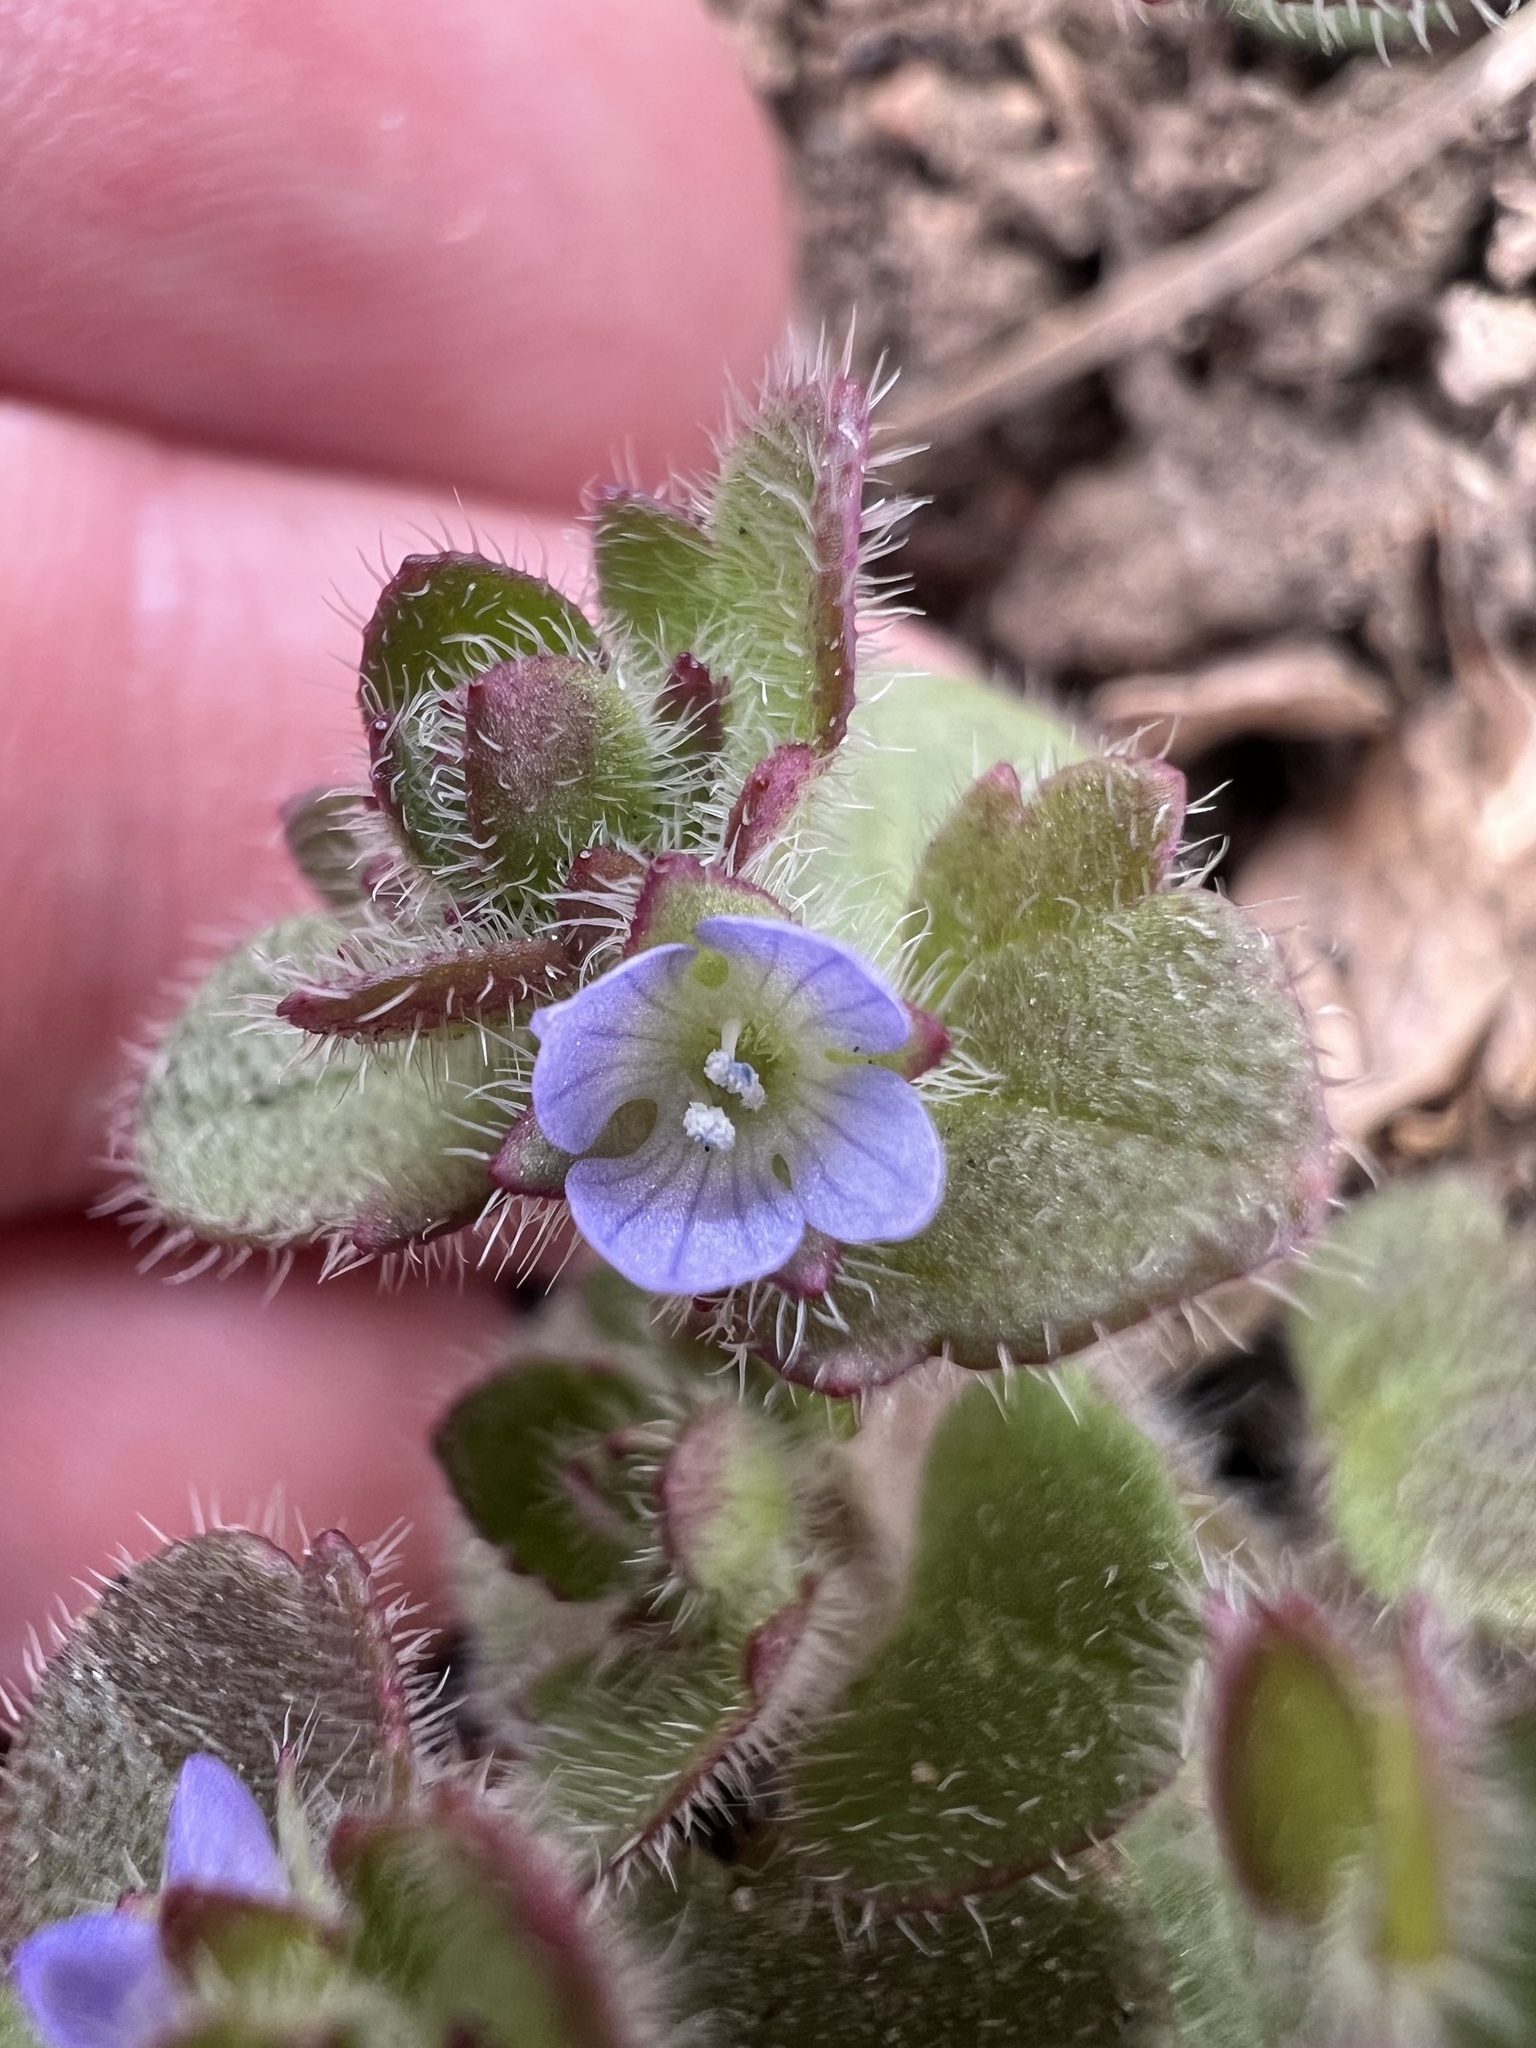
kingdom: Plantae
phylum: Tracheophyta
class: Magnoliopsida
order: Lamiales
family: Plantaginaceae
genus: Veronica
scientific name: Veronica hederifolia
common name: Ivy-leaved speedwell
